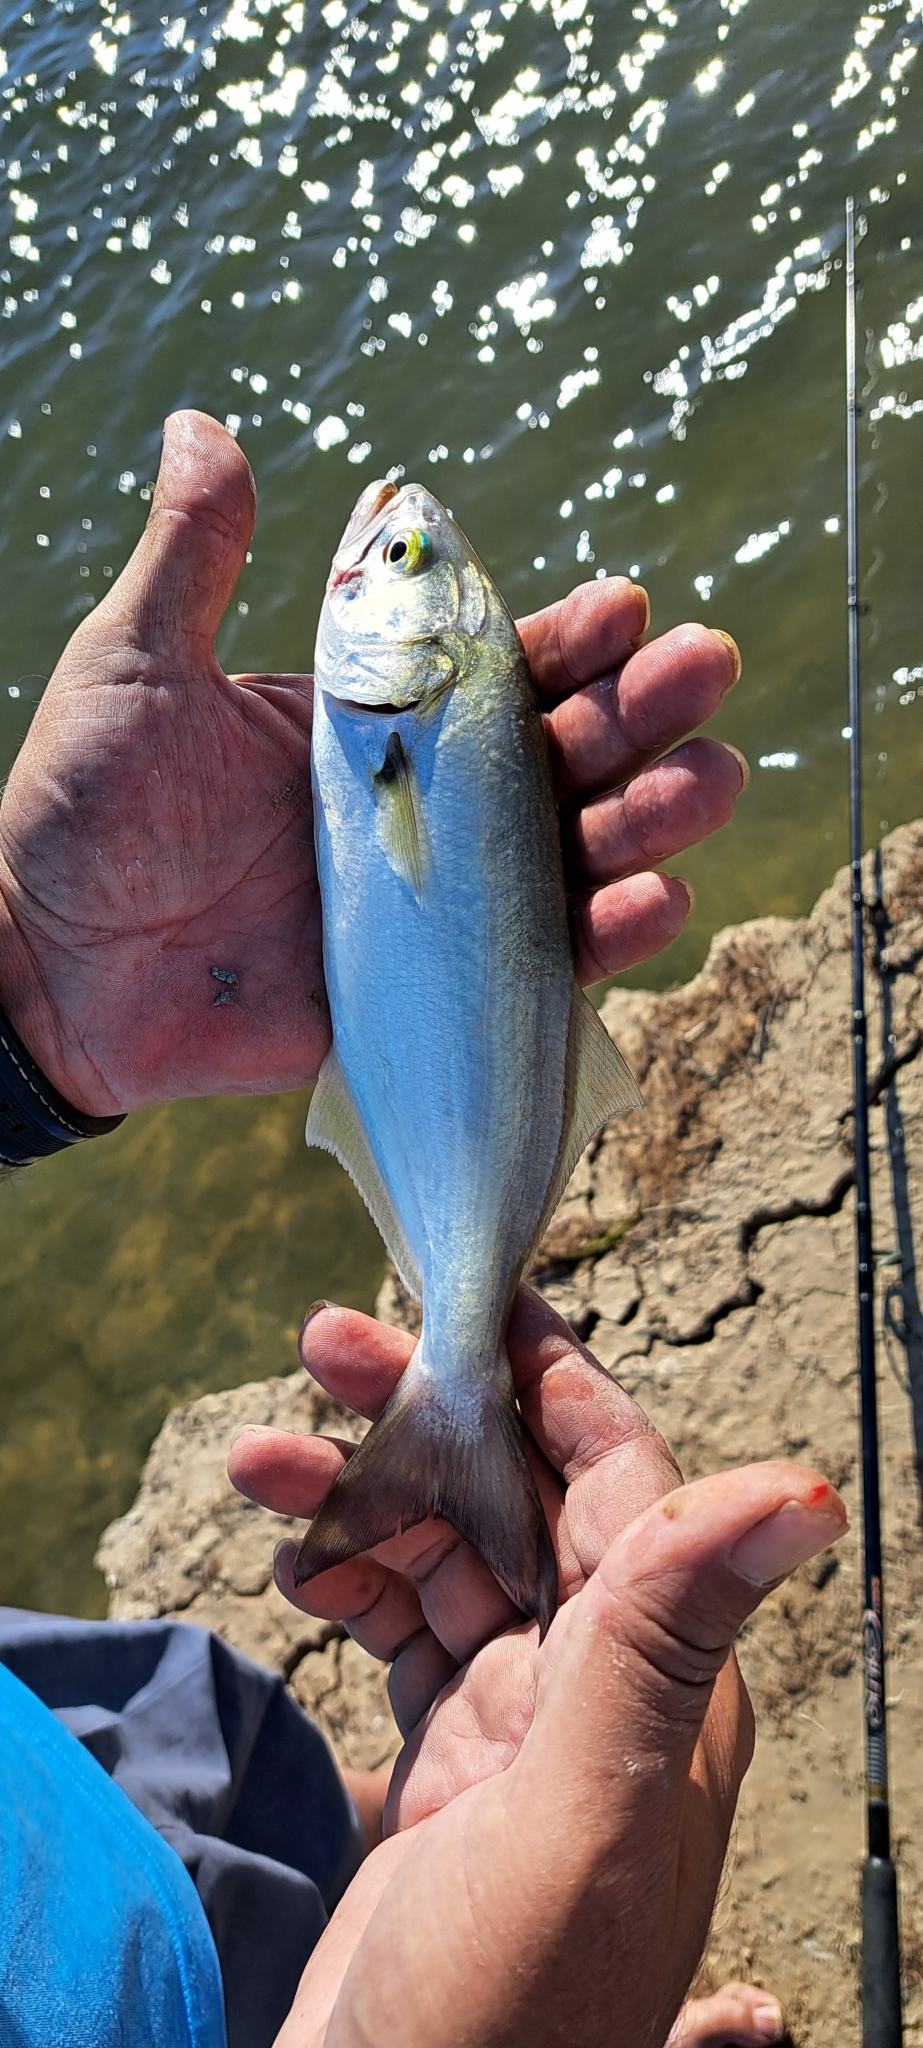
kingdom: Animalia
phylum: Chordata
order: Perciformes
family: Pomatomidae
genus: Pomatomus
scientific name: Pomatomus saltatrix
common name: Bluefish
